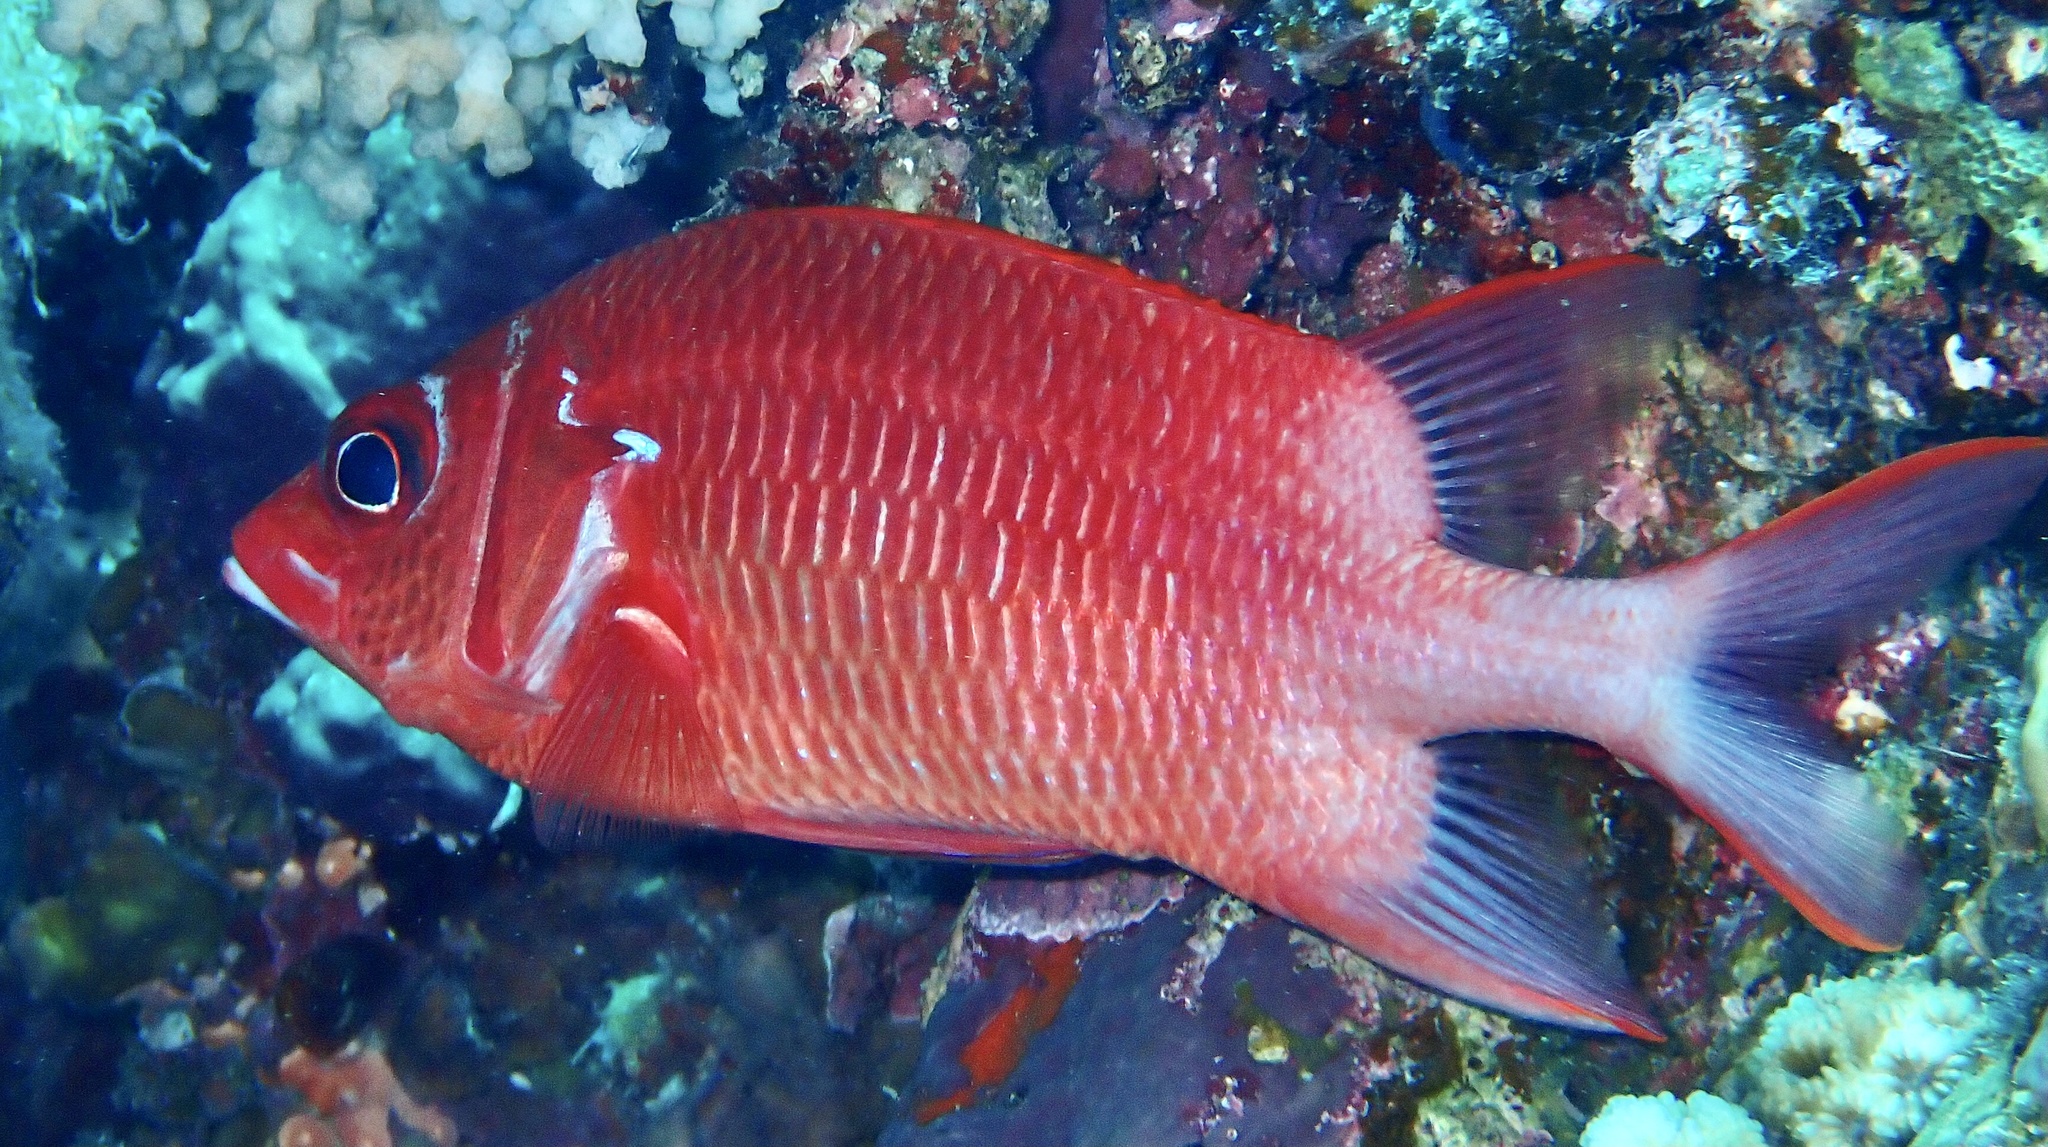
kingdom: Animalia
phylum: Chordata
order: Beryciformes
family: Holocentridae
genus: Sargocentron
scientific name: Sargocentron caudimaculatum
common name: Fanfin soldier
